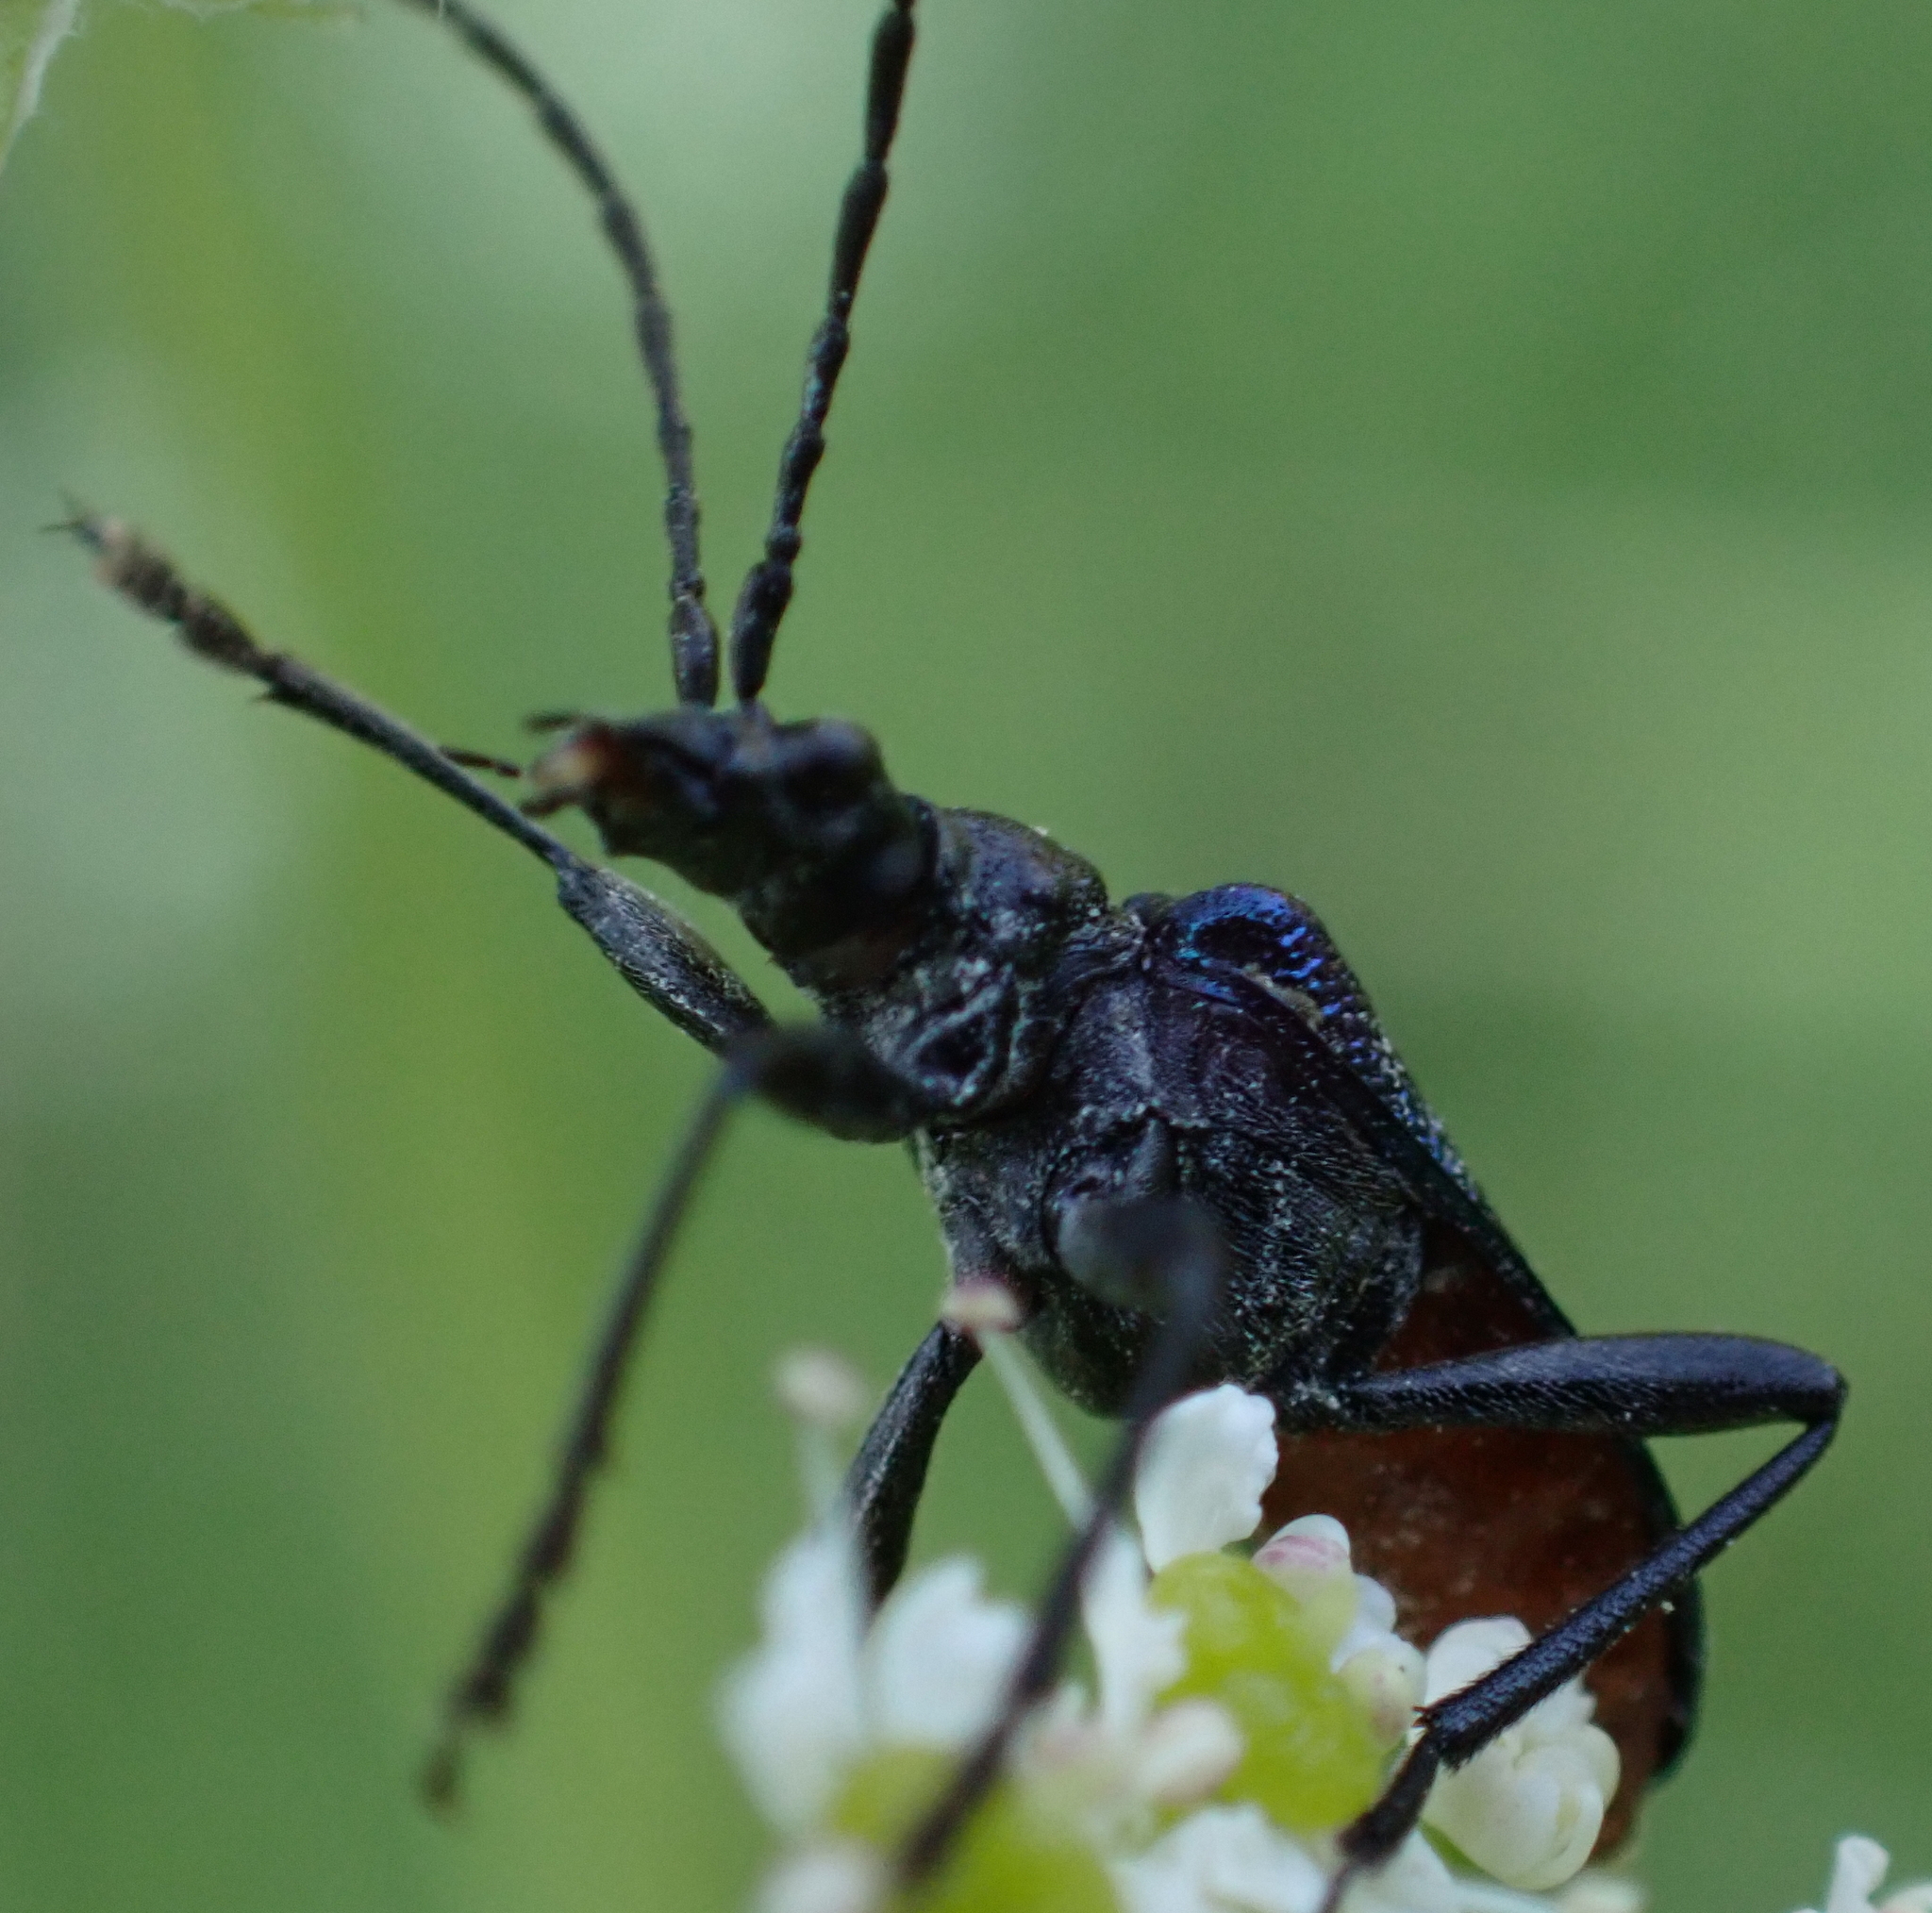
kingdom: Animalia
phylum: Arthropoda
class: Insecta
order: Coleoptera
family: Cerambycidae
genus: Gaurotes
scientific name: Gaurotes virginea
